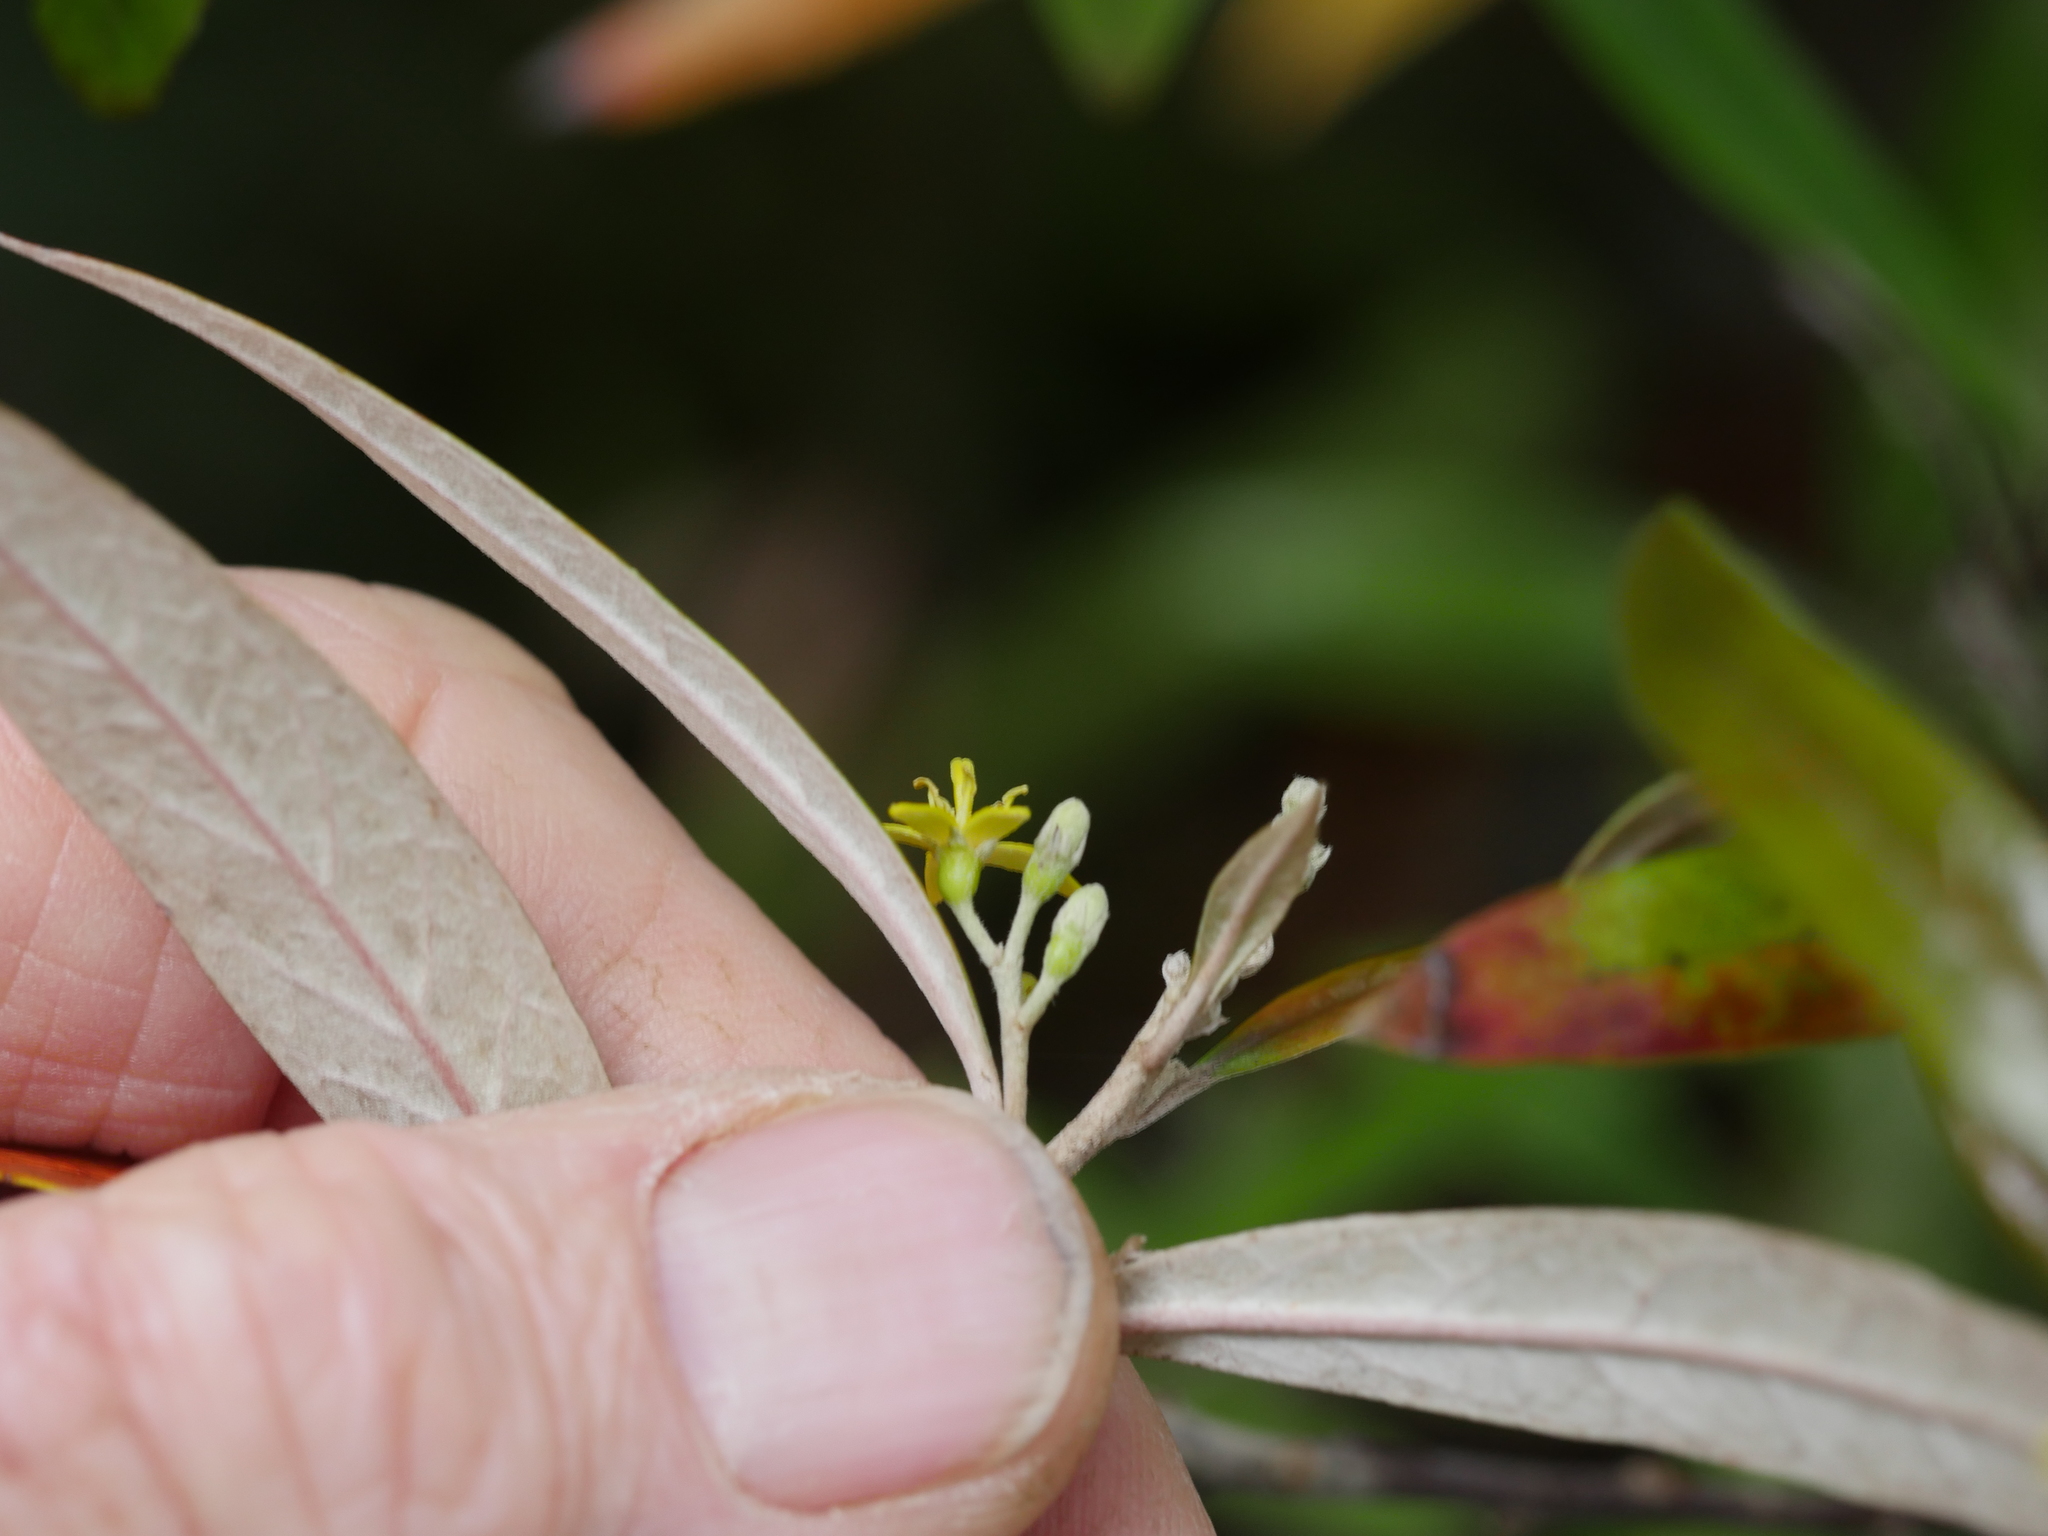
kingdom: Plantae
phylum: Tracheophyta
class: Magnoliopsida
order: Asterales
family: Argophyllaceae
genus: Corokia
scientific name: Corokia buddleioides
